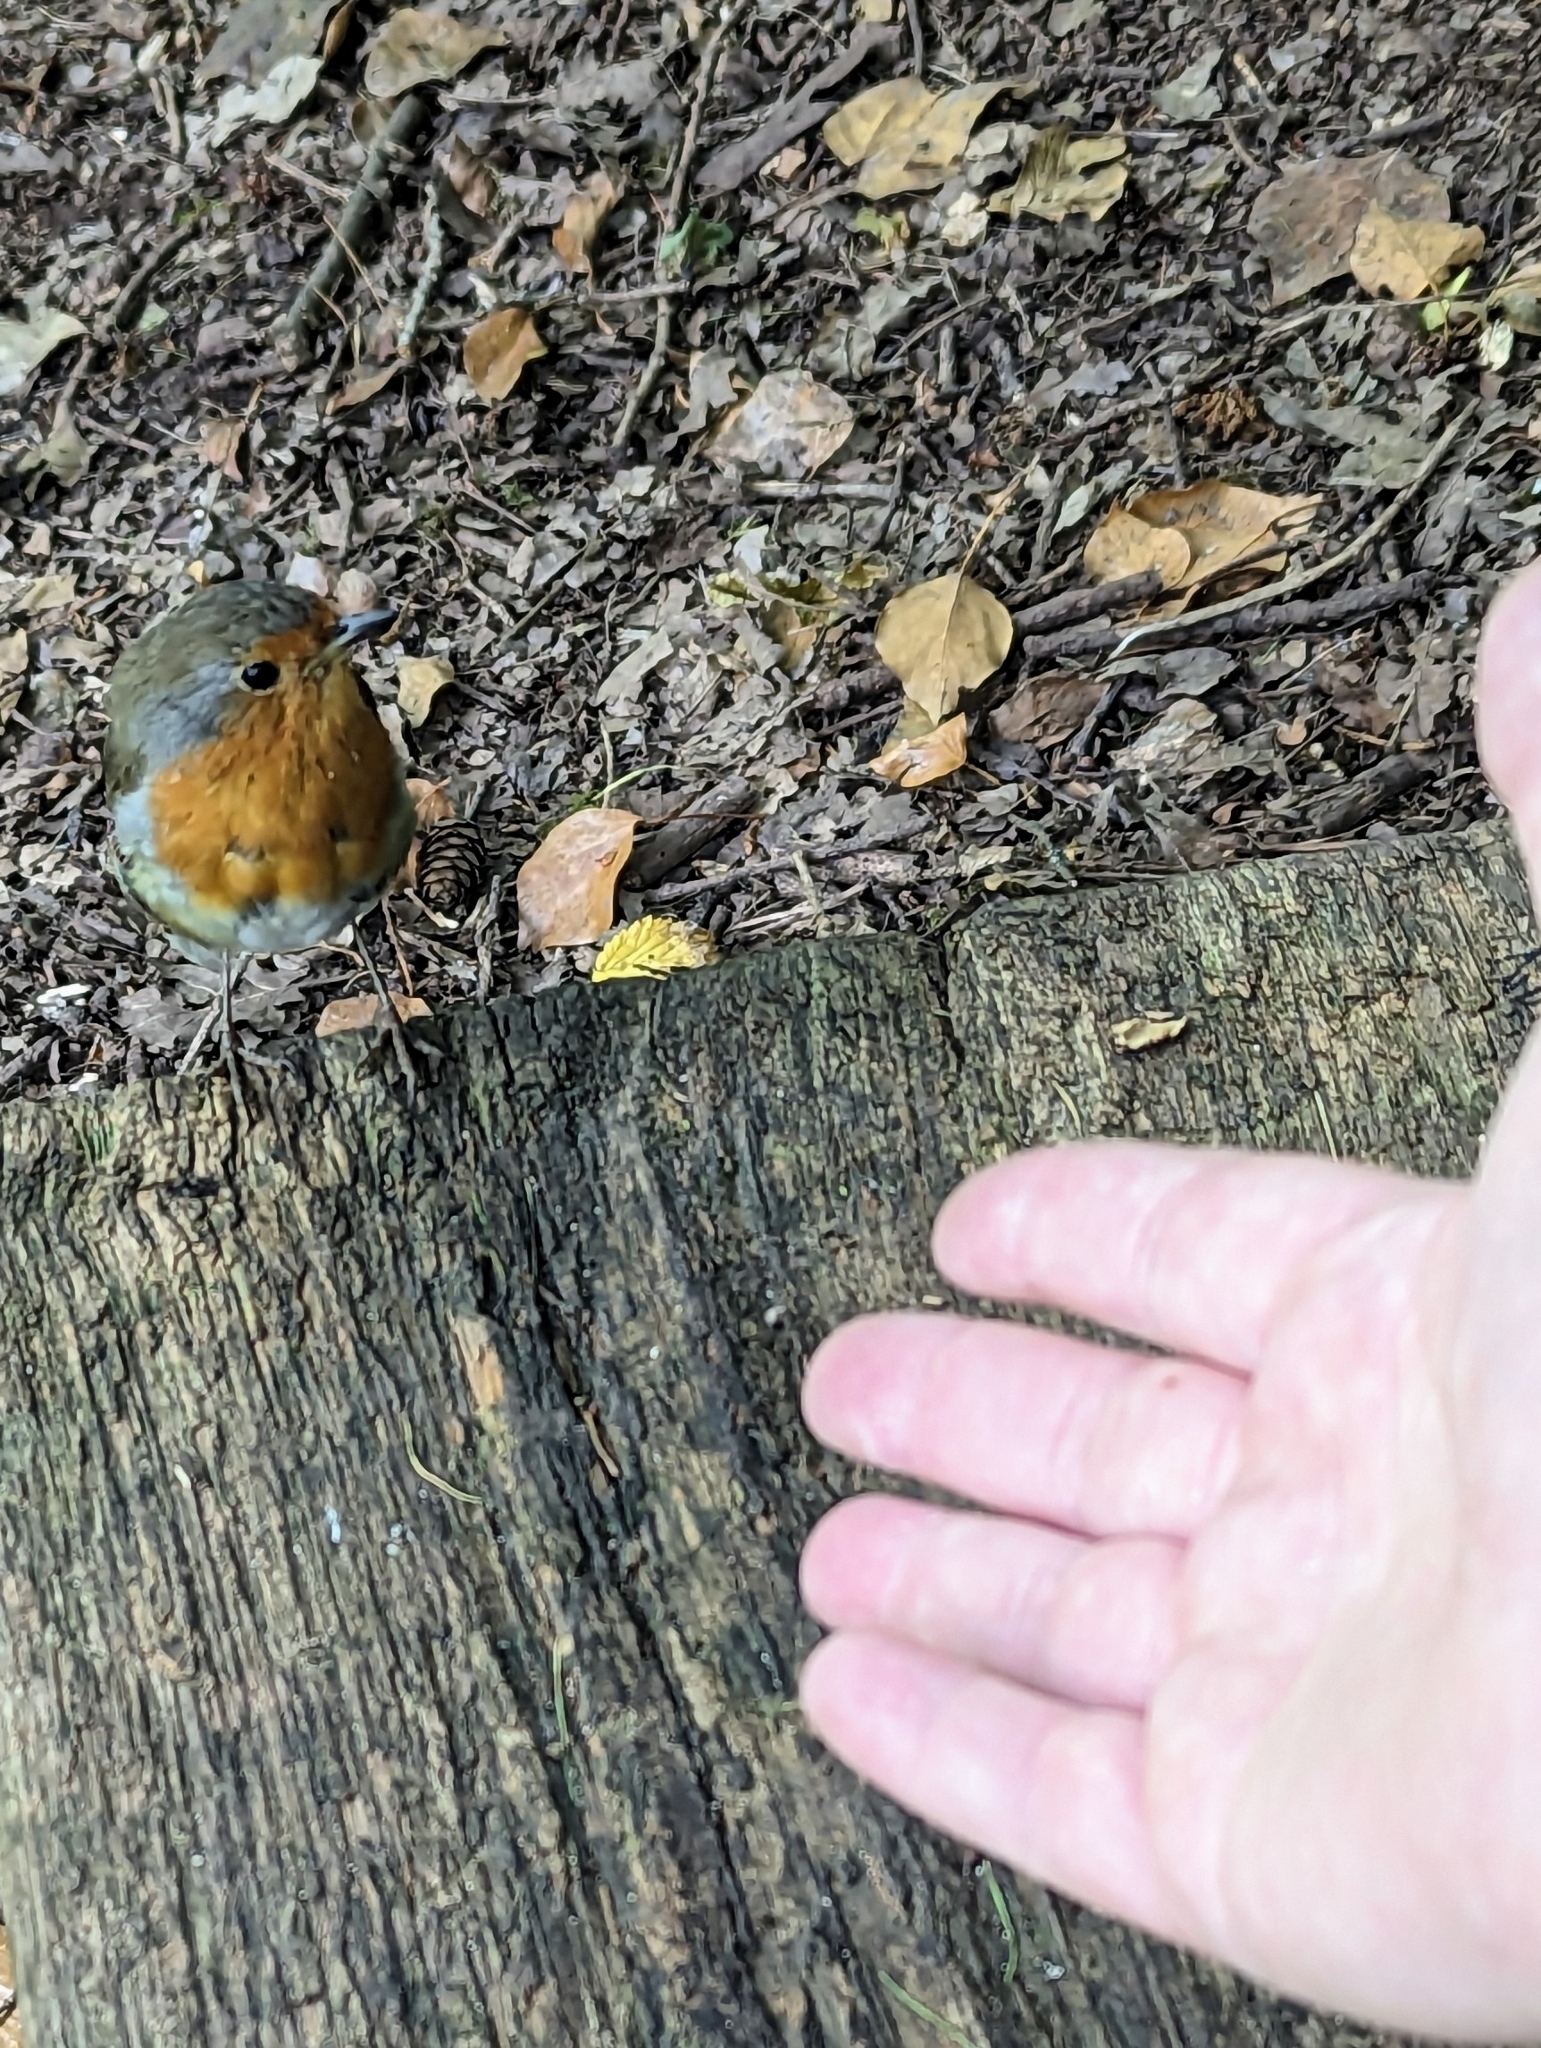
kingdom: Animalia
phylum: Chordata
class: Aves
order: Passeriformes
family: Muscicapidae
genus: Erithacus
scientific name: Erithacus rubecula
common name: European robin
